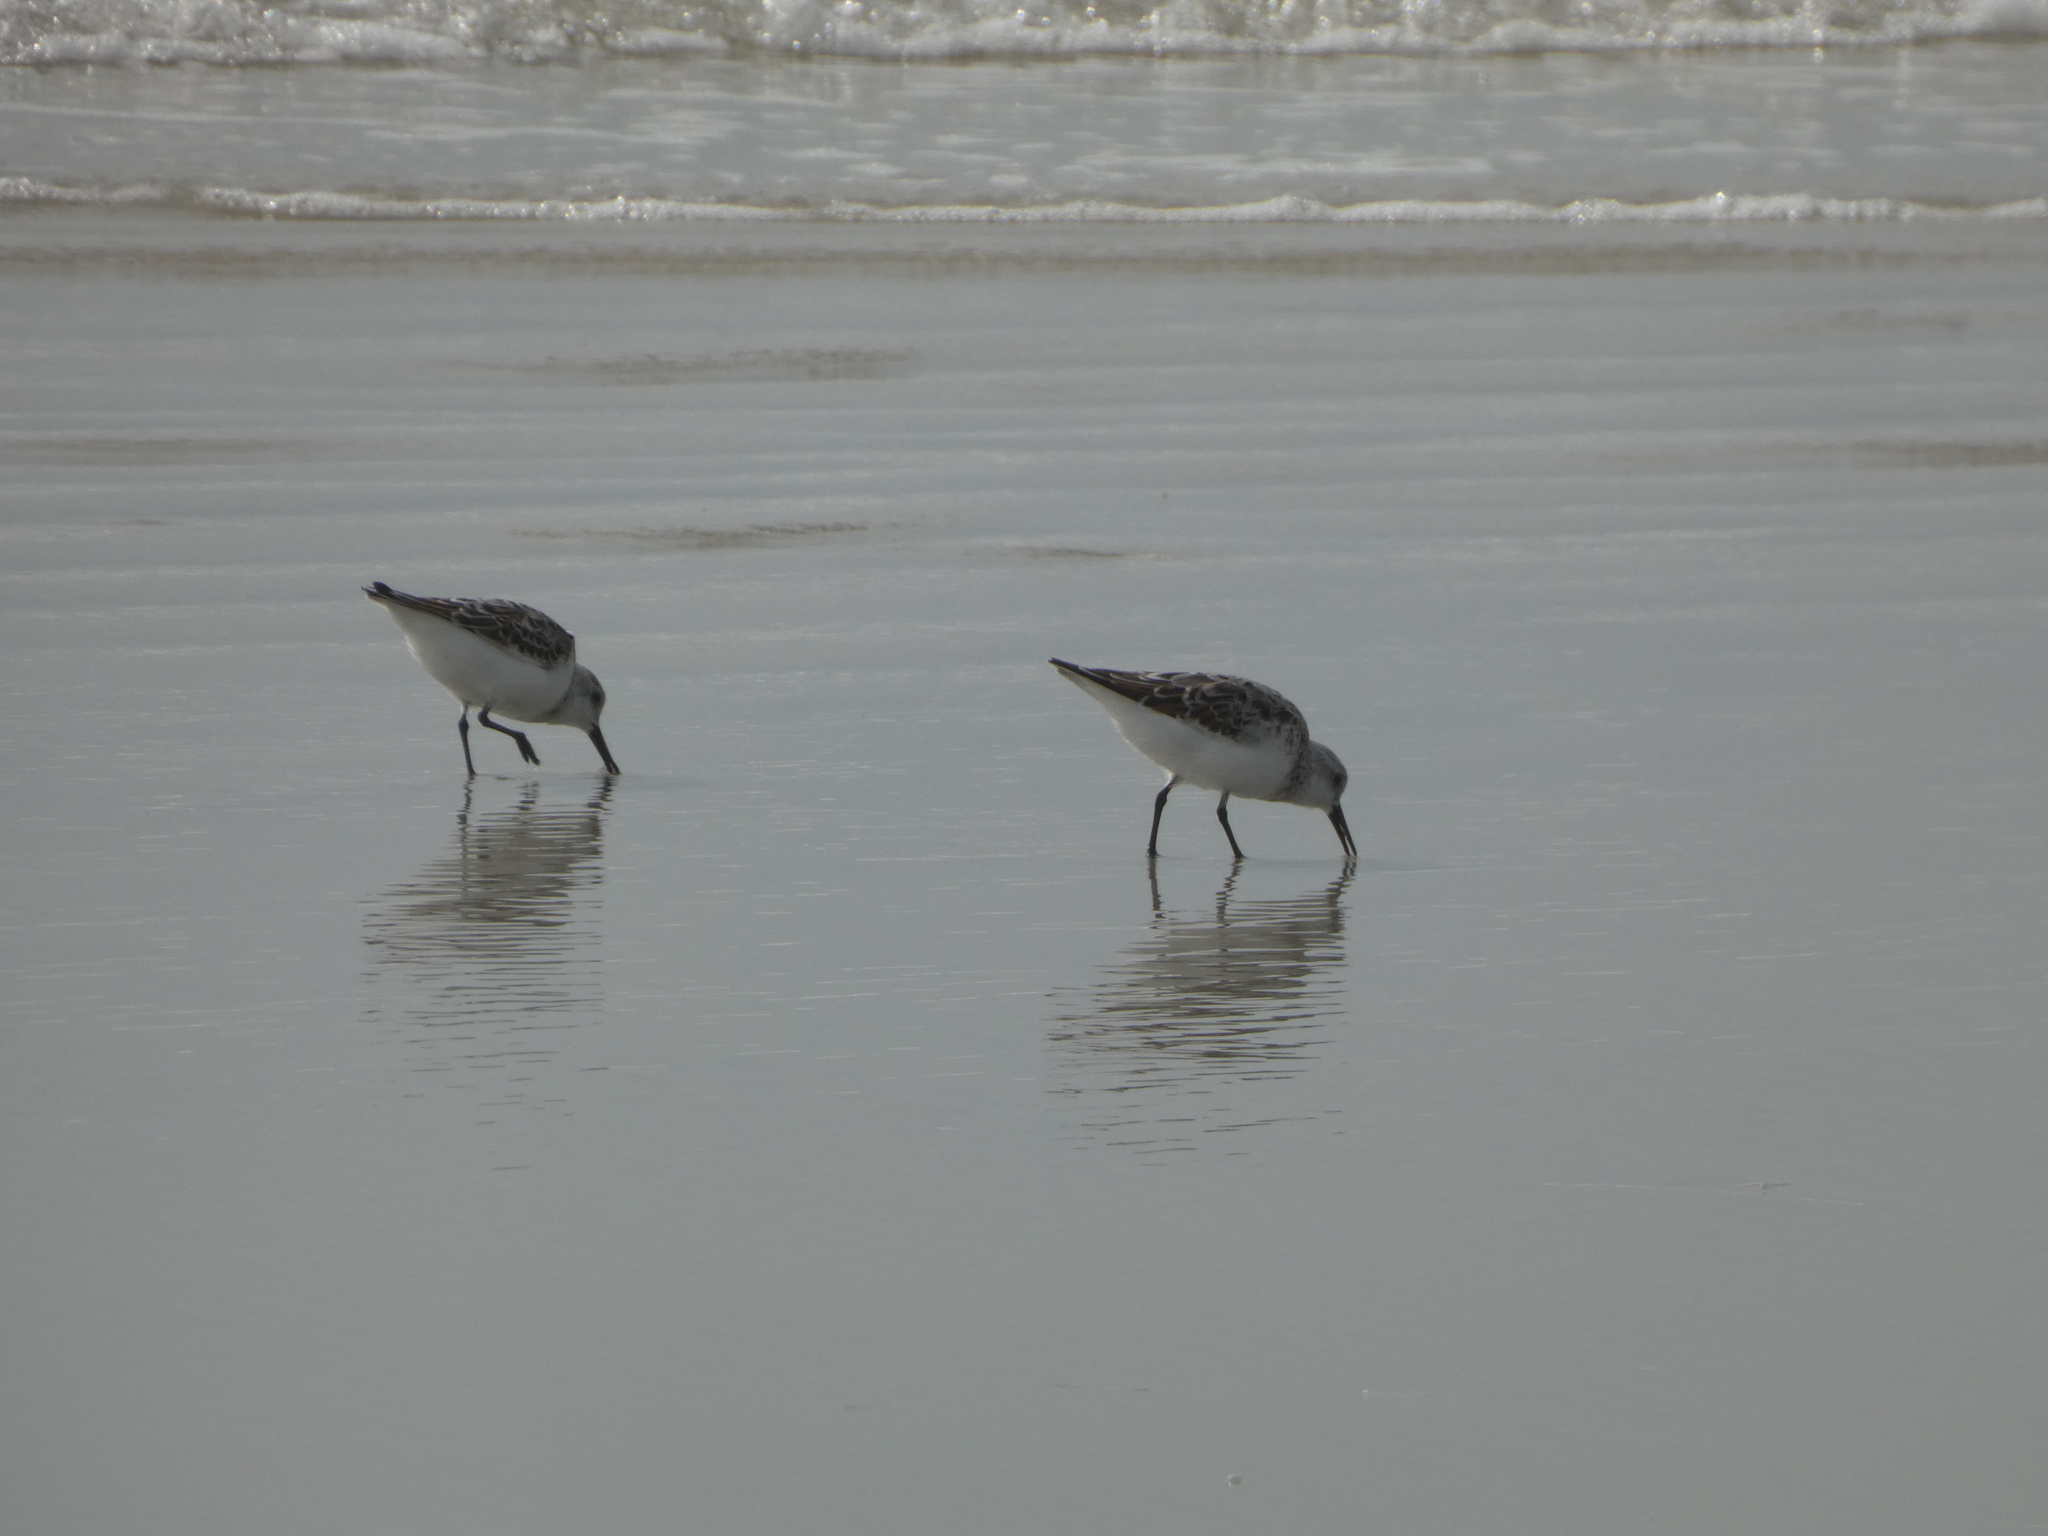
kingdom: Animalia
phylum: Chordata
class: Aves
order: Charadriiformes
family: Scolopacidae
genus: Calidris
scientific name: Calidris alba
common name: Sanderling
